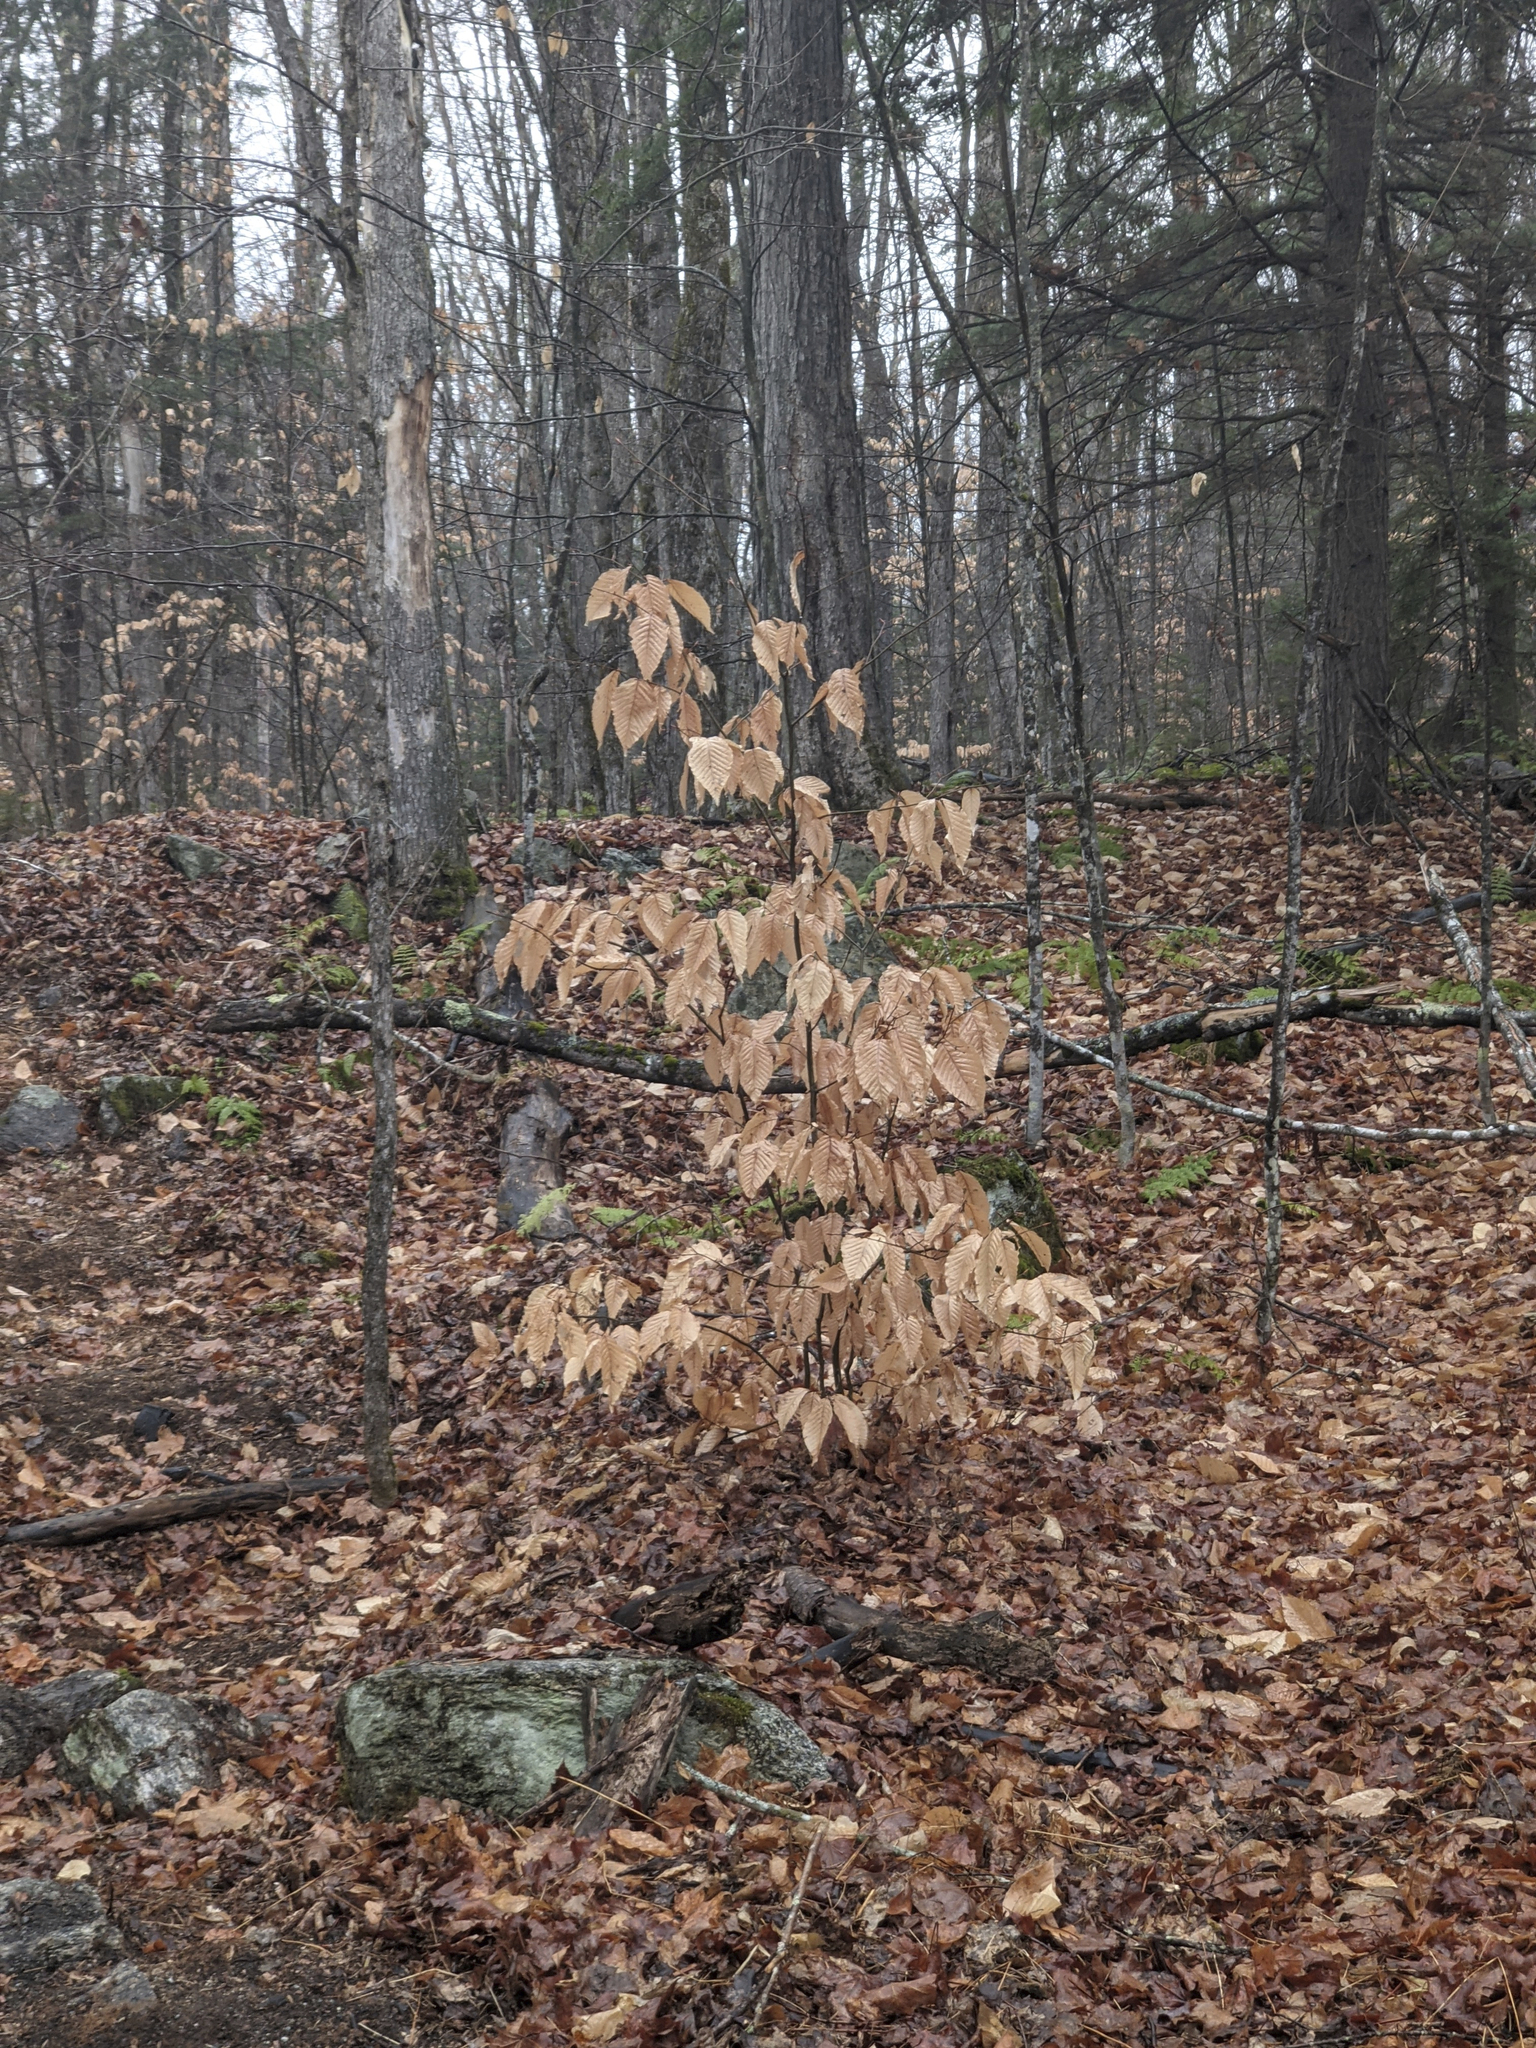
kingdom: Plantae
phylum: Tracheophyta
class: Magnoliopsida
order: Fagales
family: Fagaceae
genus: Fagus
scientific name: Fagus grandifolia
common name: American beech
